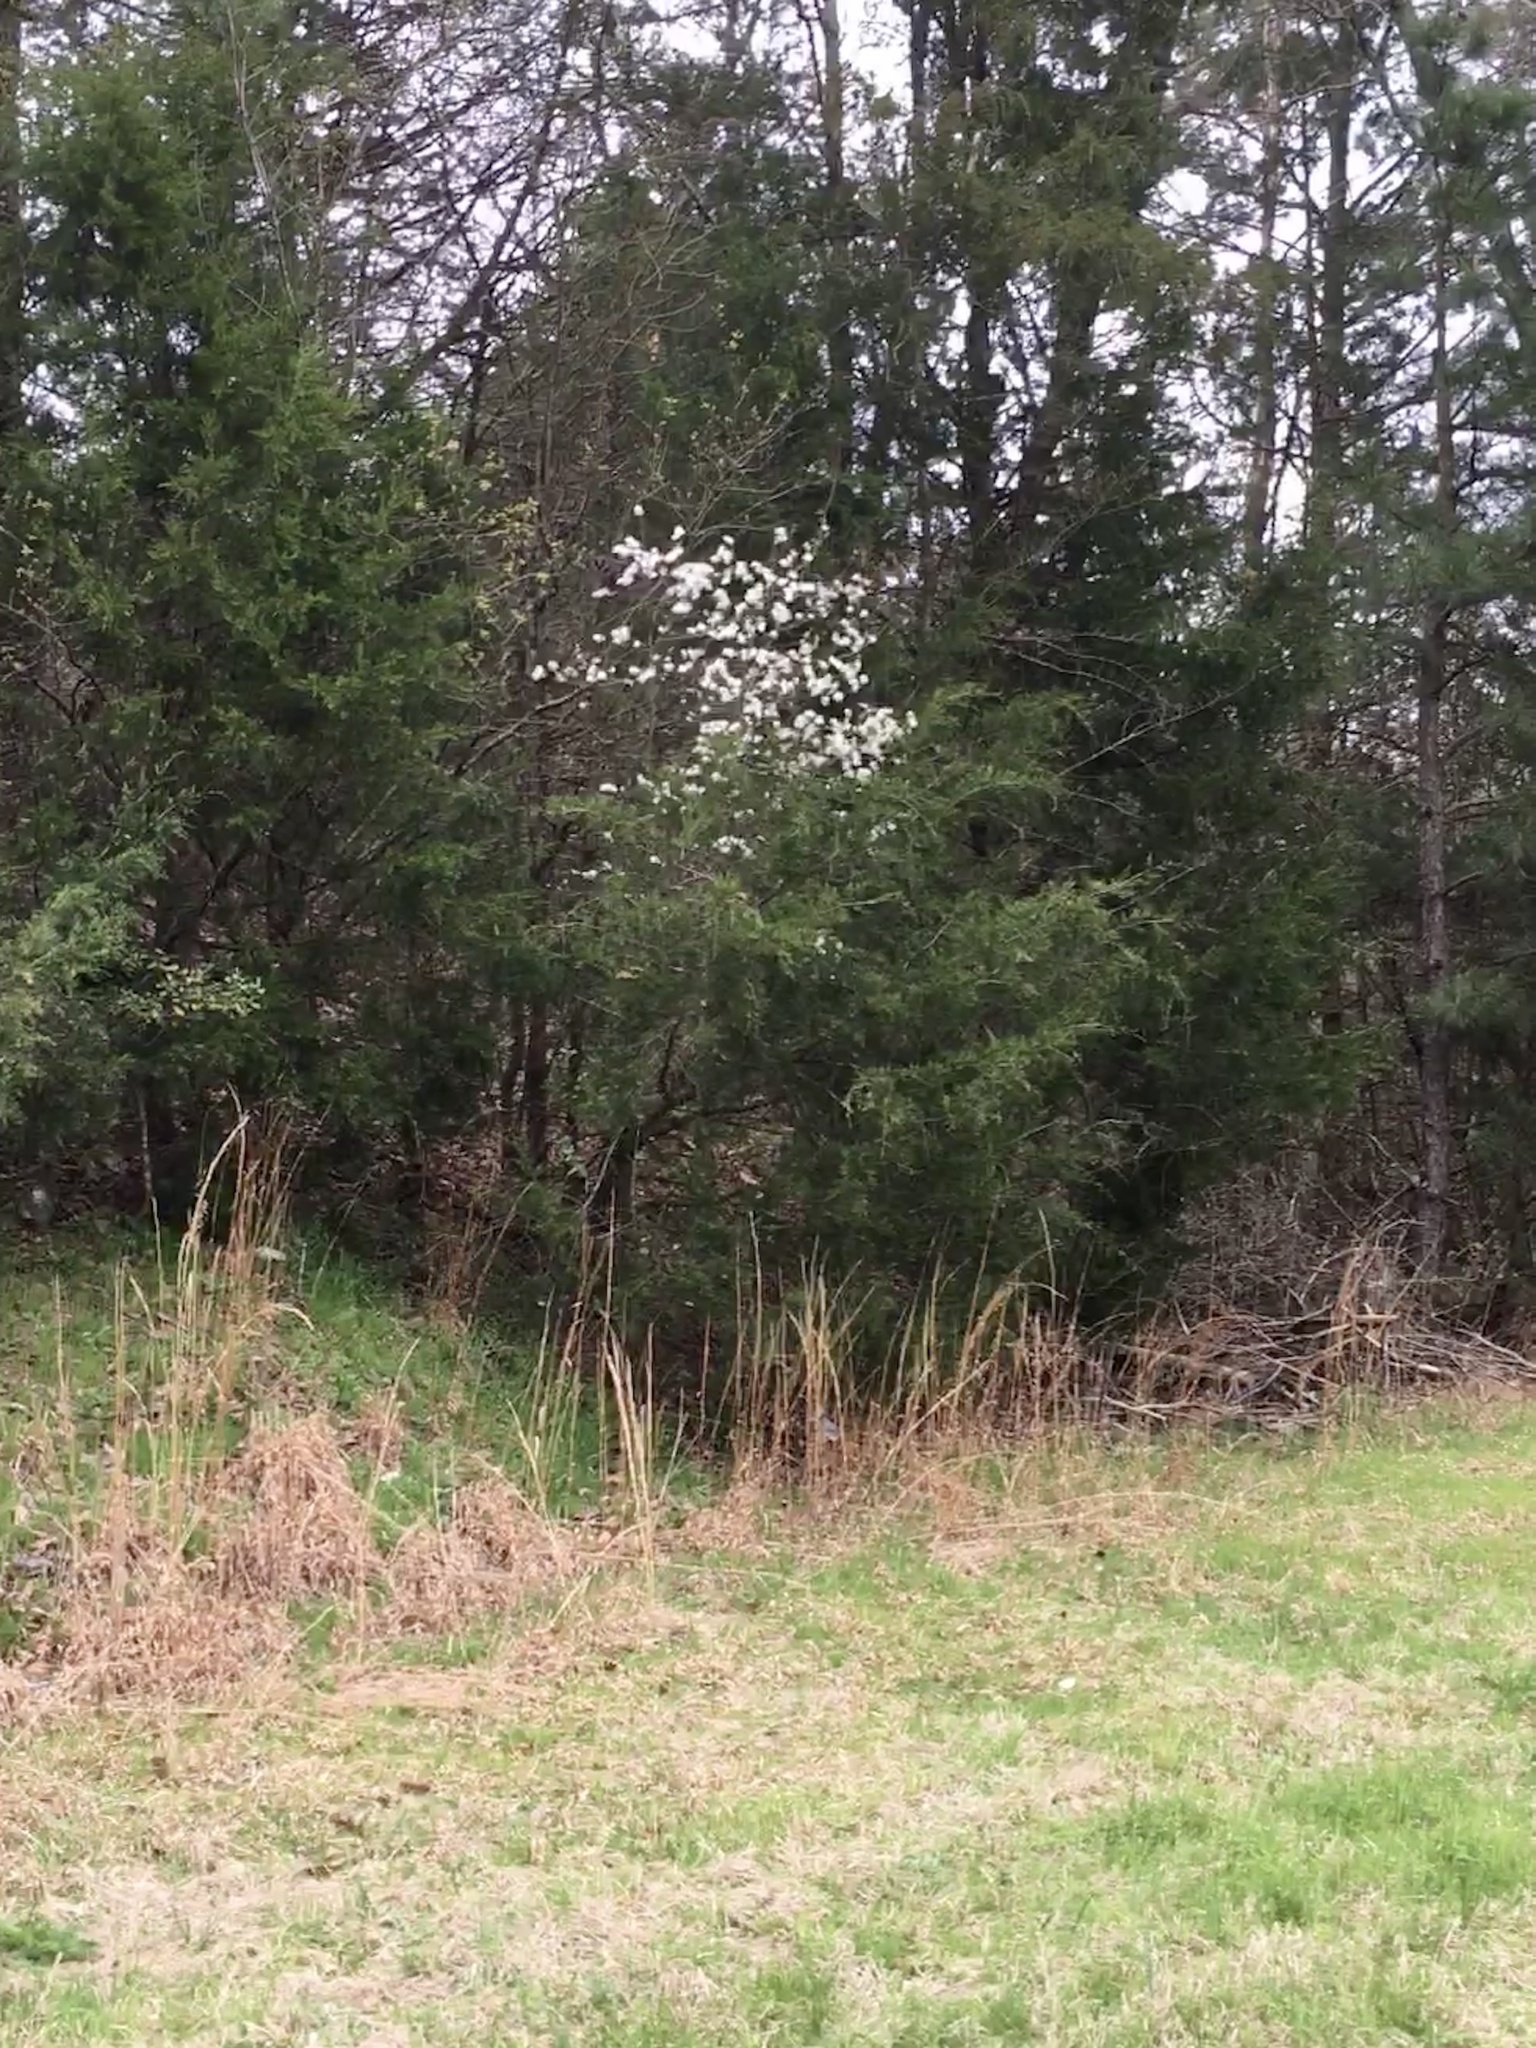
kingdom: Plantae
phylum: Tracheophyta
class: Magnoliopsida
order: Rosales
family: Rosaceae
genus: Amelanchier
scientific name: Amelanchier arborea
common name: Downy serviceberry
